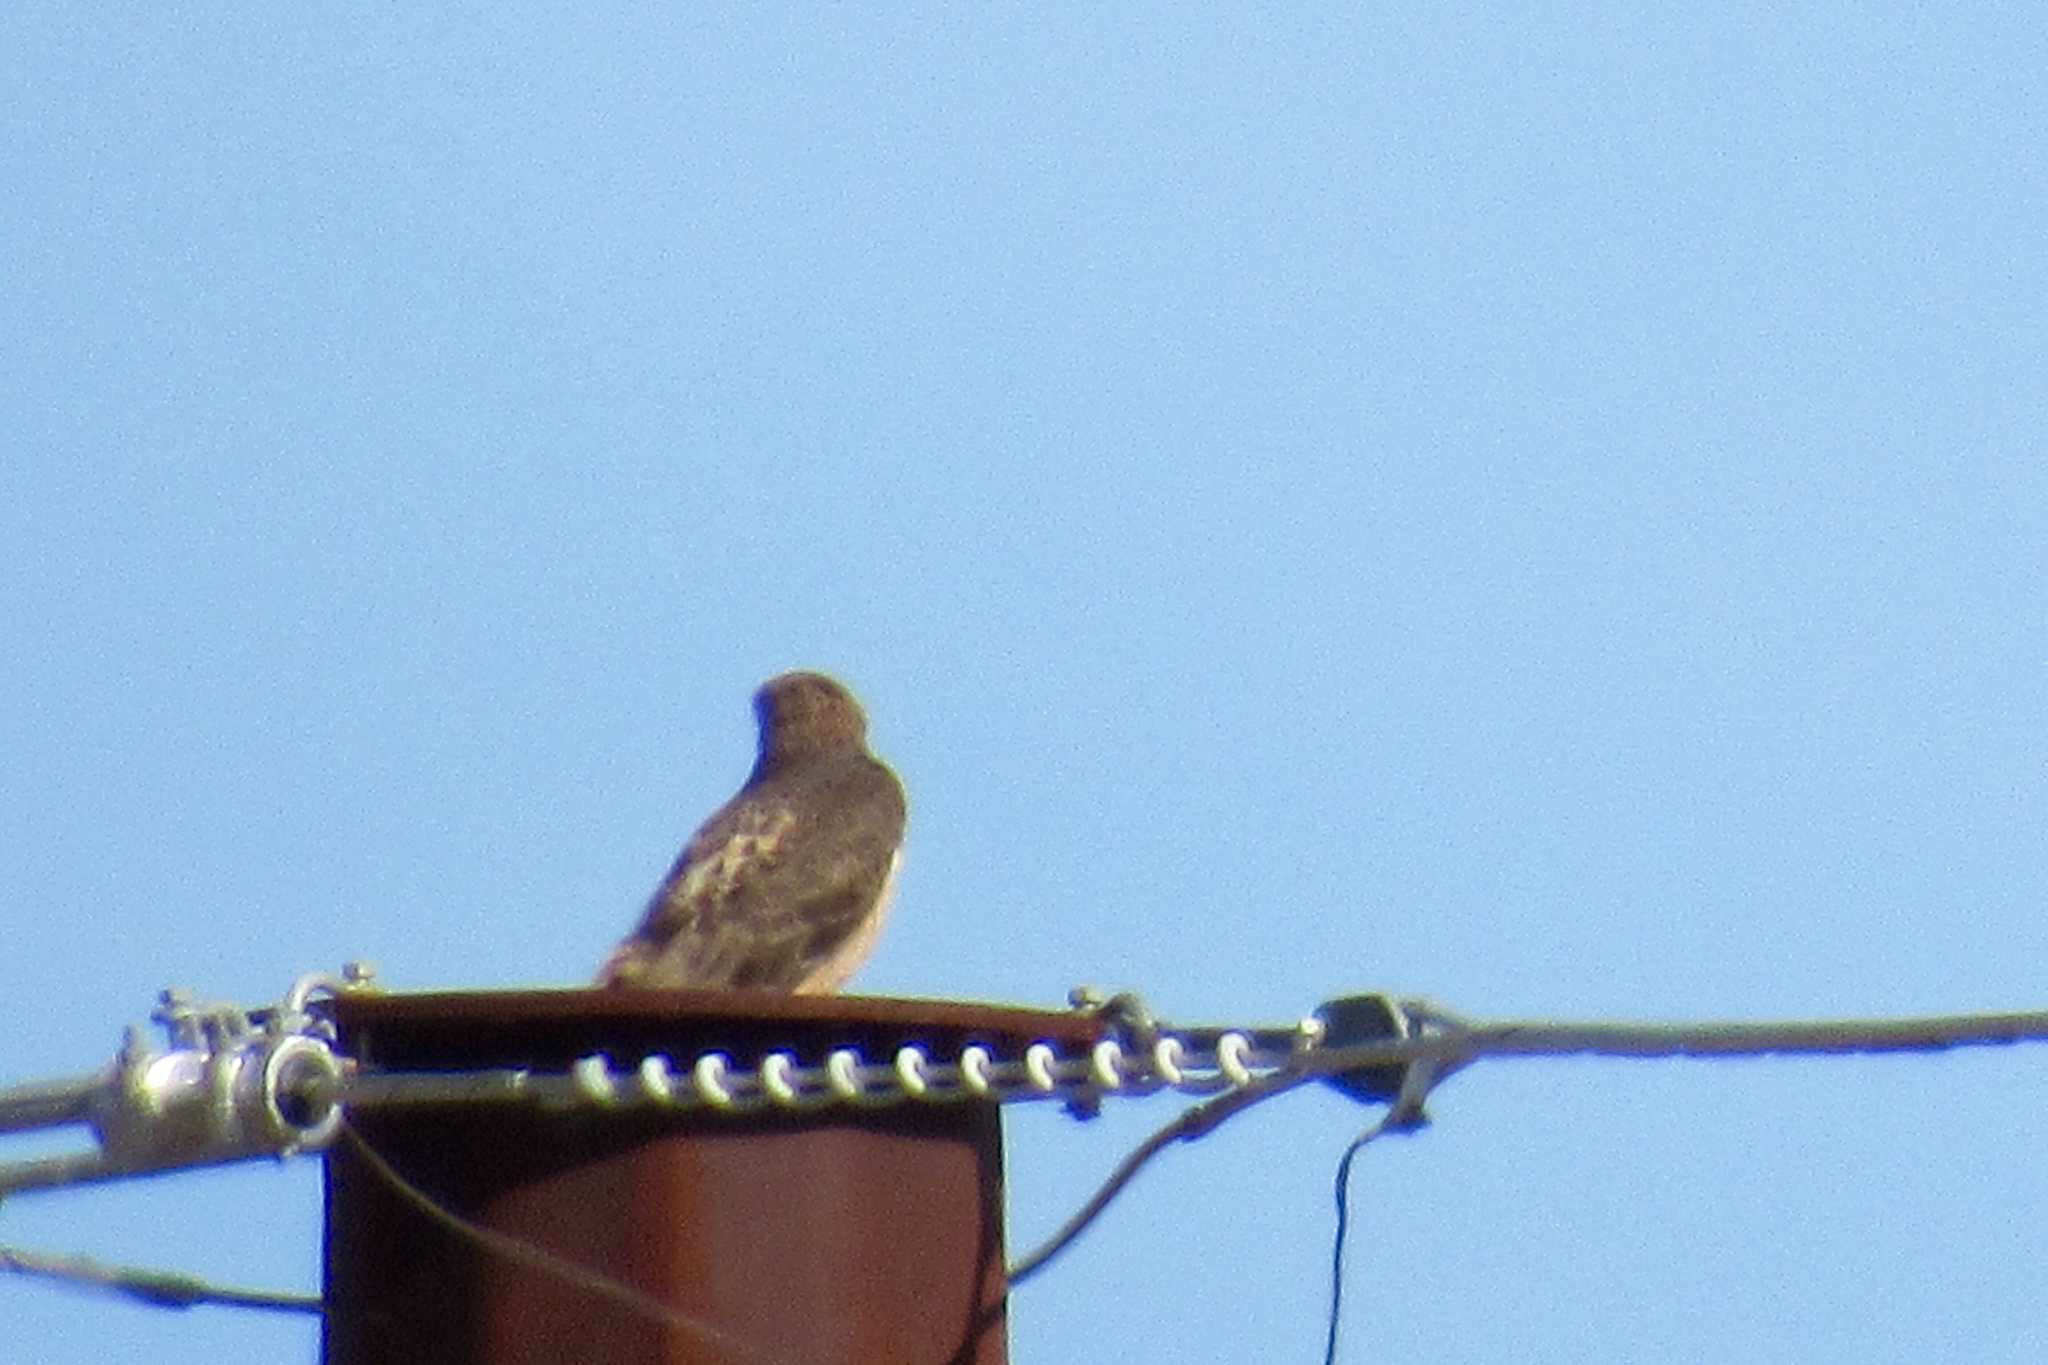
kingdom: Animalia
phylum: Chordata
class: Aves
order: Accipitriformes
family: Accipitridae
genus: Buteo
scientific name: Buteo jamaicensis
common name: Red-tailed hawk
